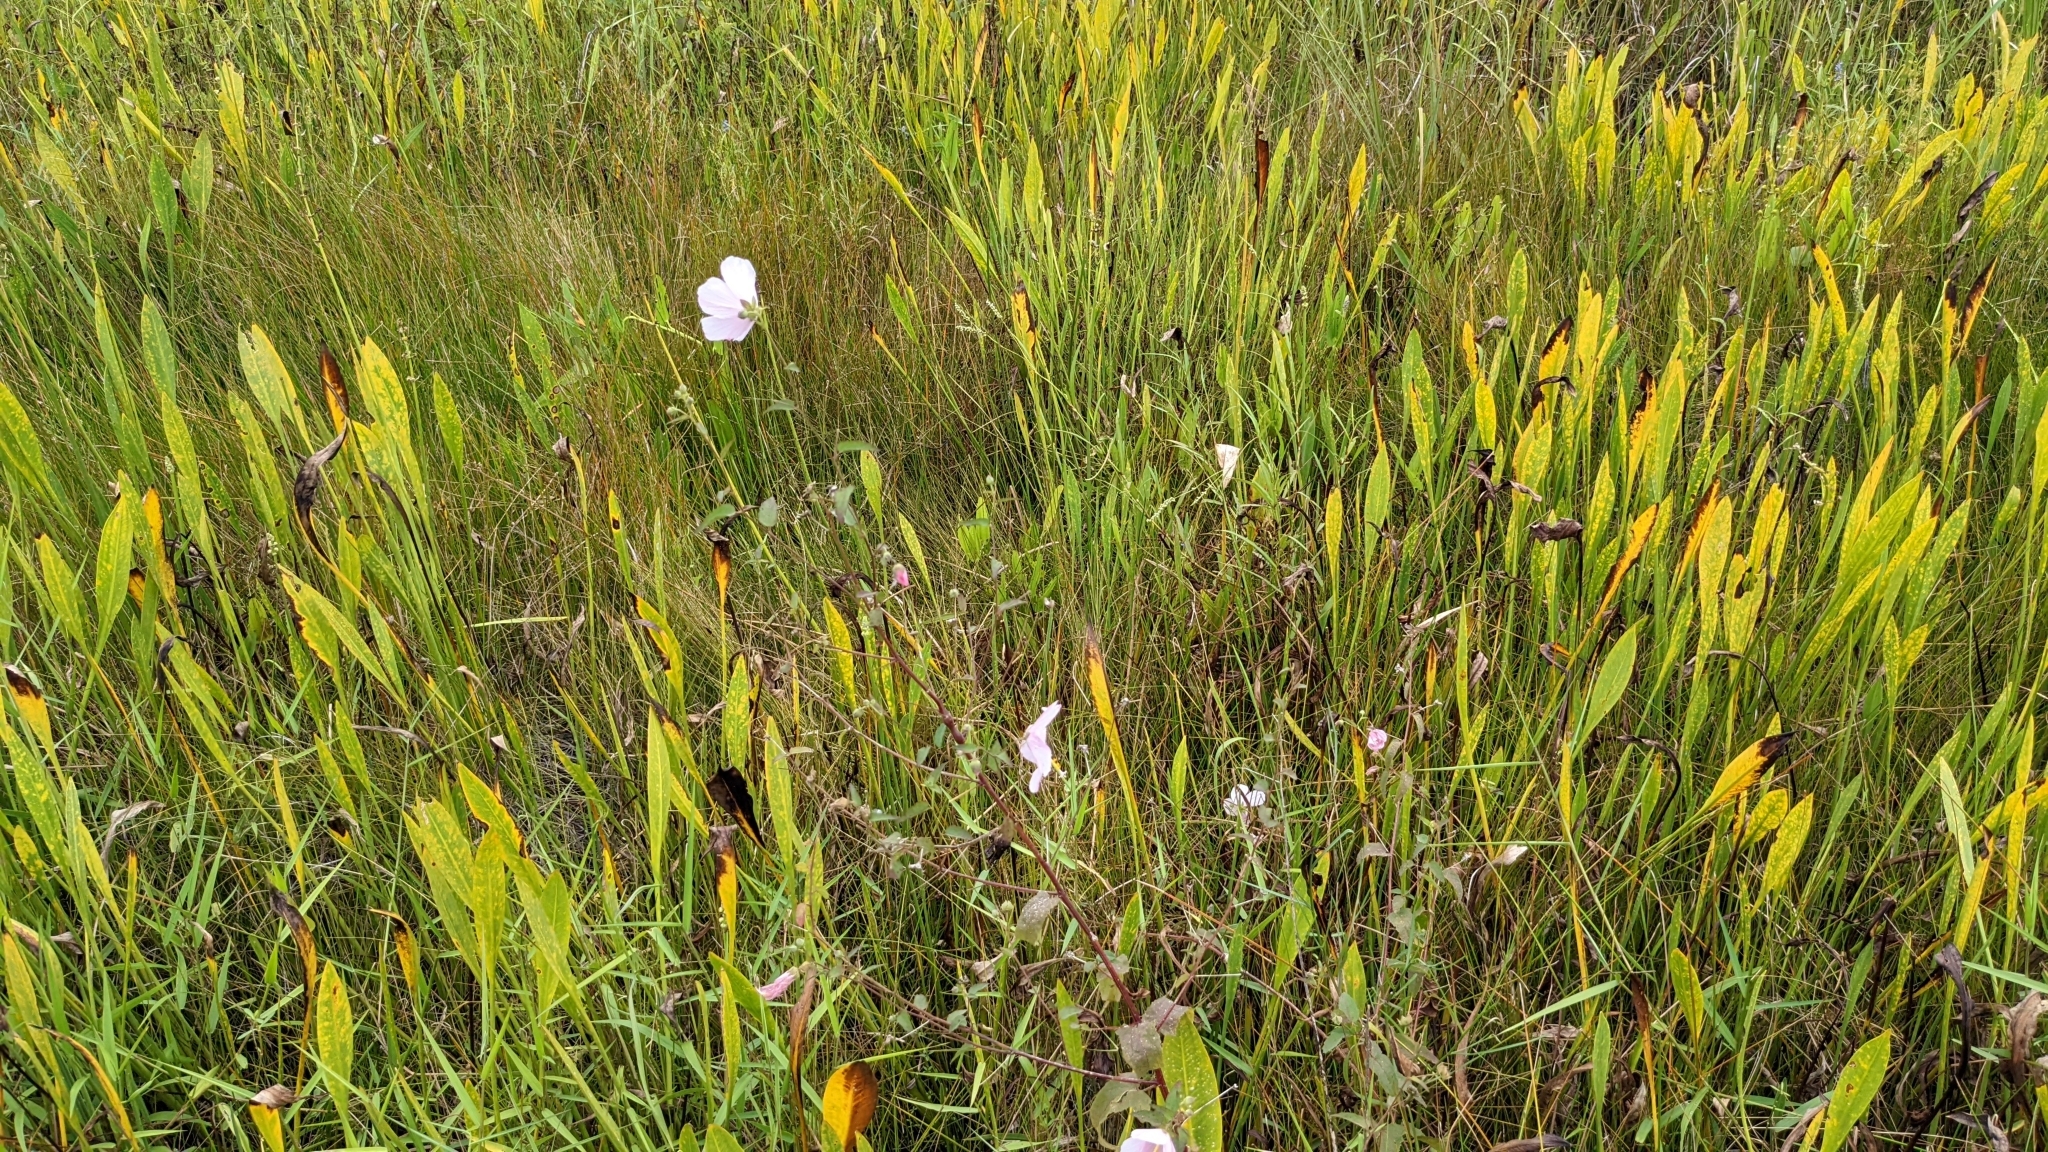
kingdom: Plantae
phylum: Tracheophyta
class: Magnoliopsida
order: Malvales
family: Malvaceae
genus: Kosteletzkya
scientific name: Kosteletzkya pentacarpos
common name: Virginia saltmarsh mallow
